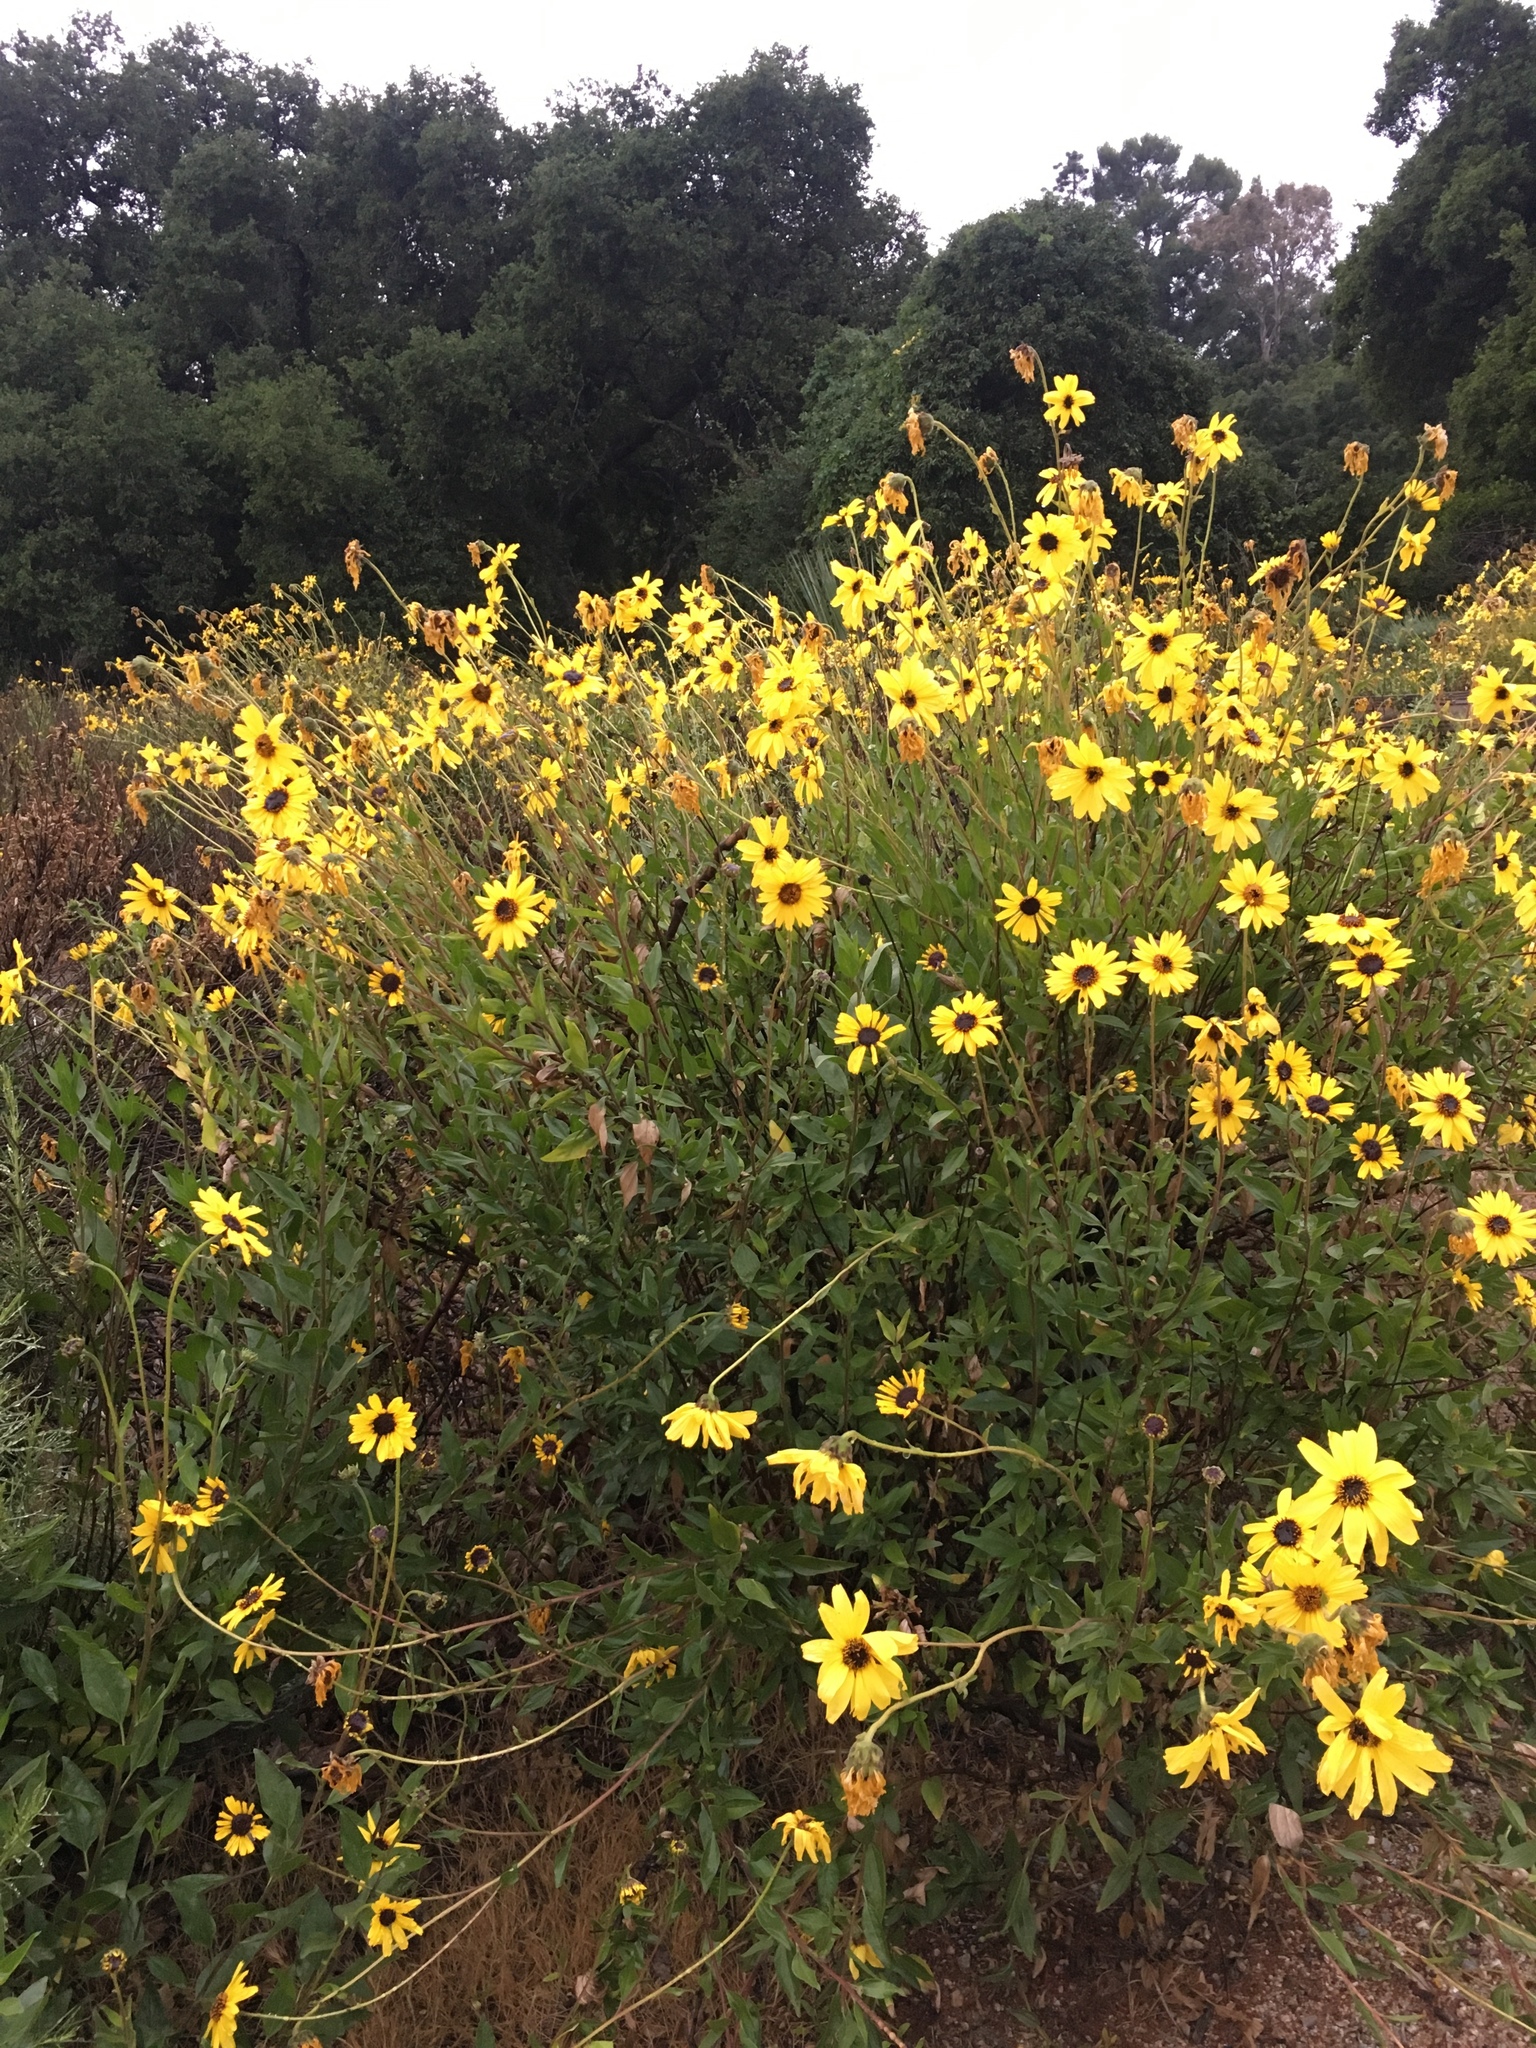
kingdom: Plantae
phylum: Tracheophyta
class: Magnoliopsida
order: Asterales
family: Asteraceae
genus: Encelia
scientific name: Encelia californica
